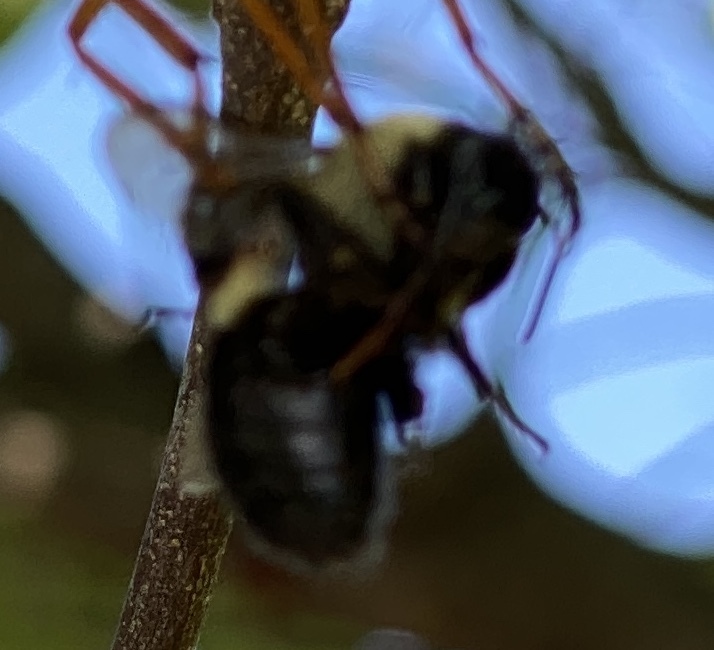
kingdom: Animalia
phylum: Arthropoda
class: Insecta
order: Hymenoptera
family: Apidae
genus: Bombus
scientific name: Bombus
